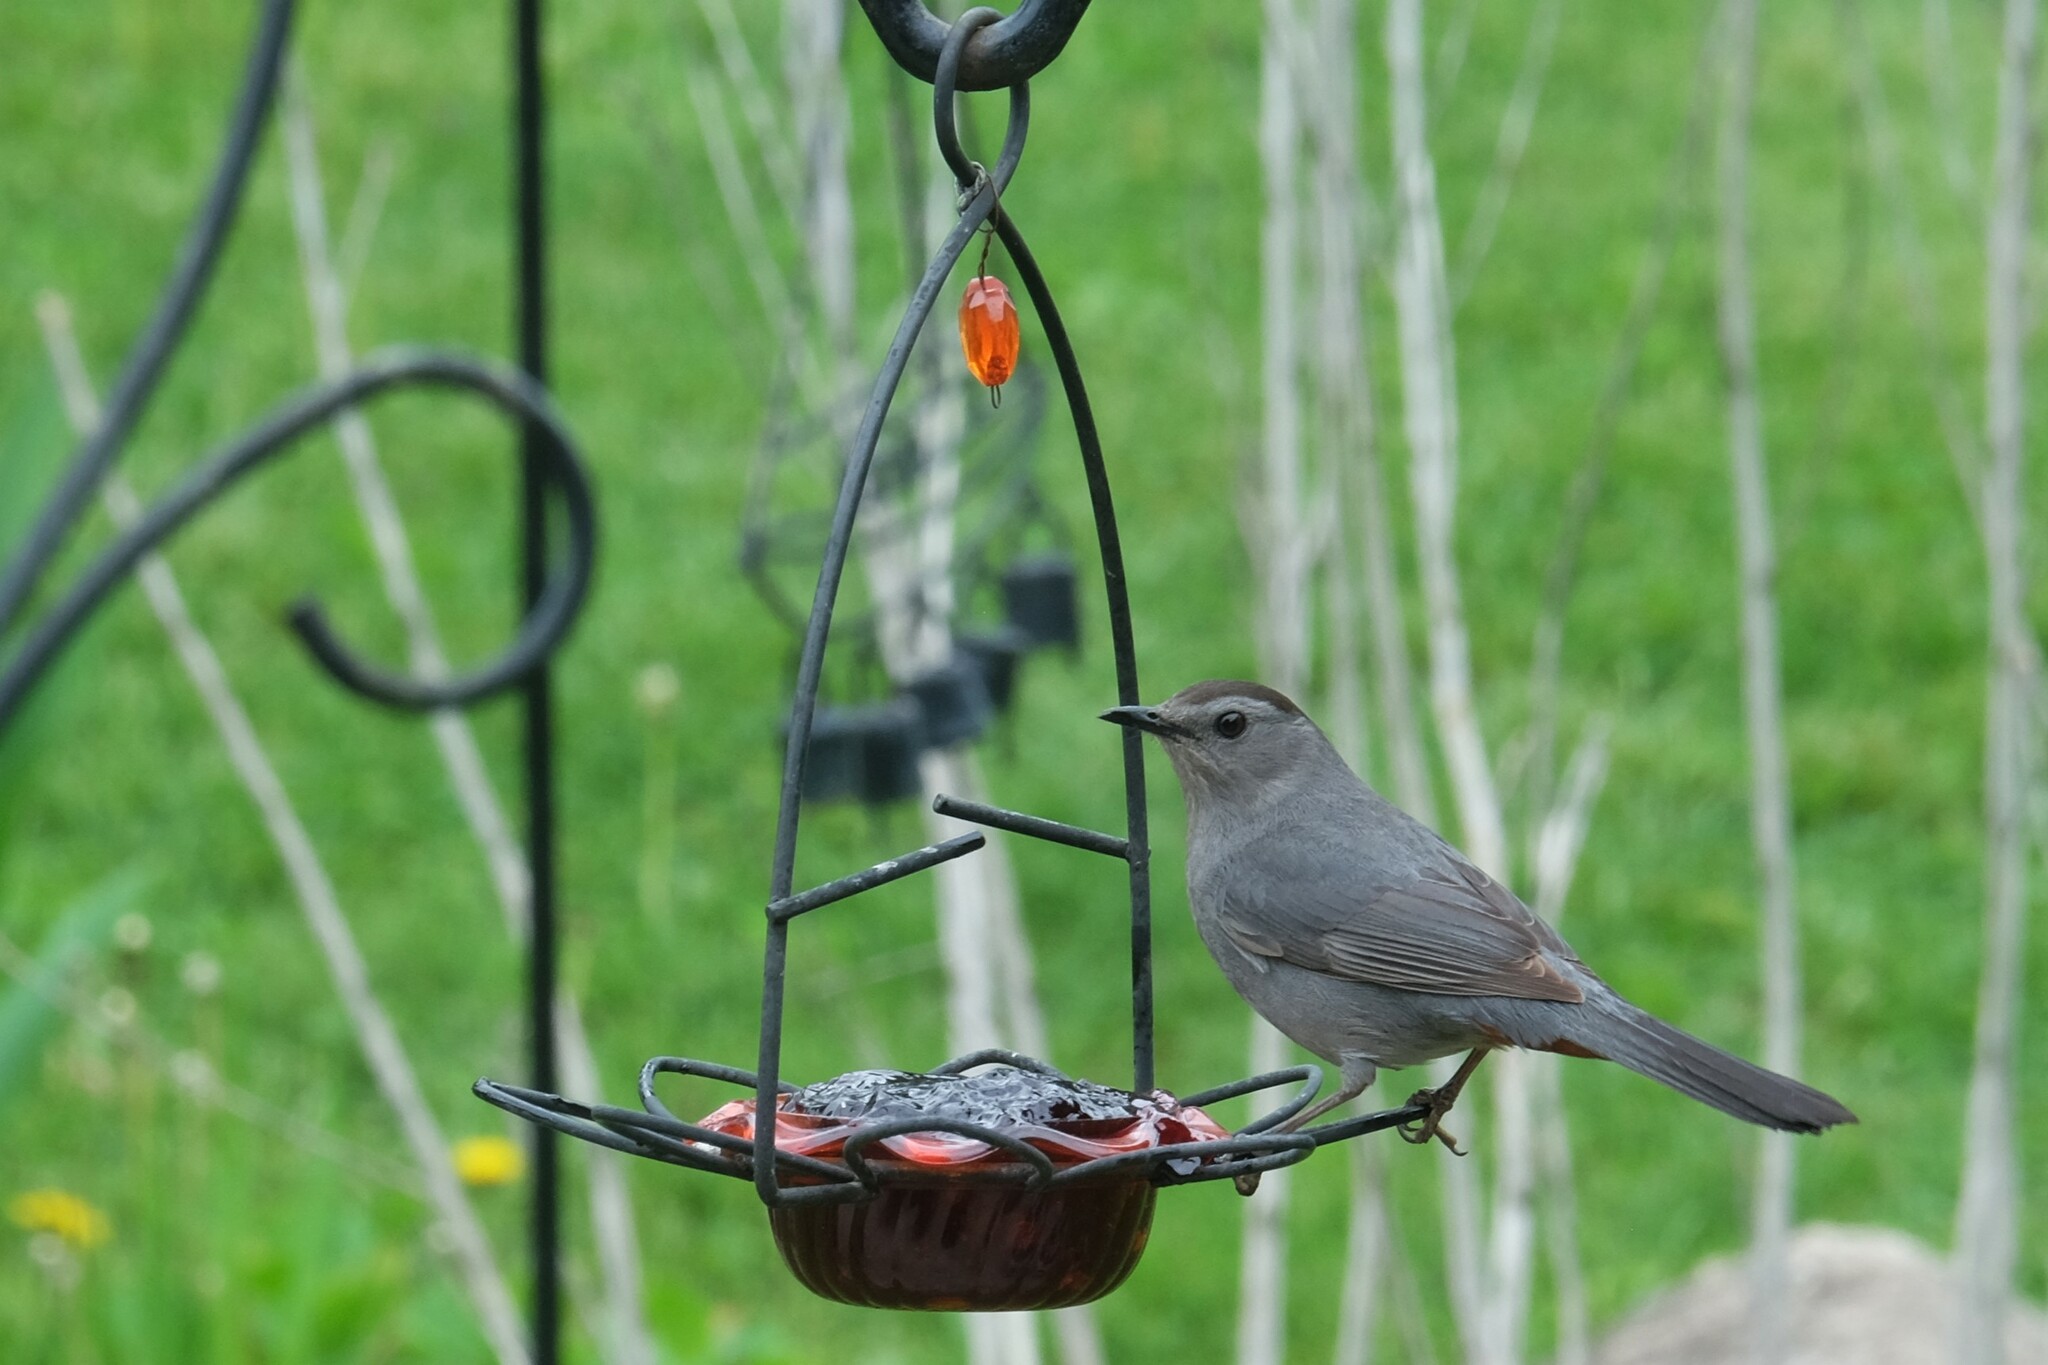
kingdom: Animalia
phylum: Chordata
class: Aves
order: Passeriformes
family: Mimidae
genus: Dumetella
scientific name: Dumetella carolinensis
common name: Gray catbird
